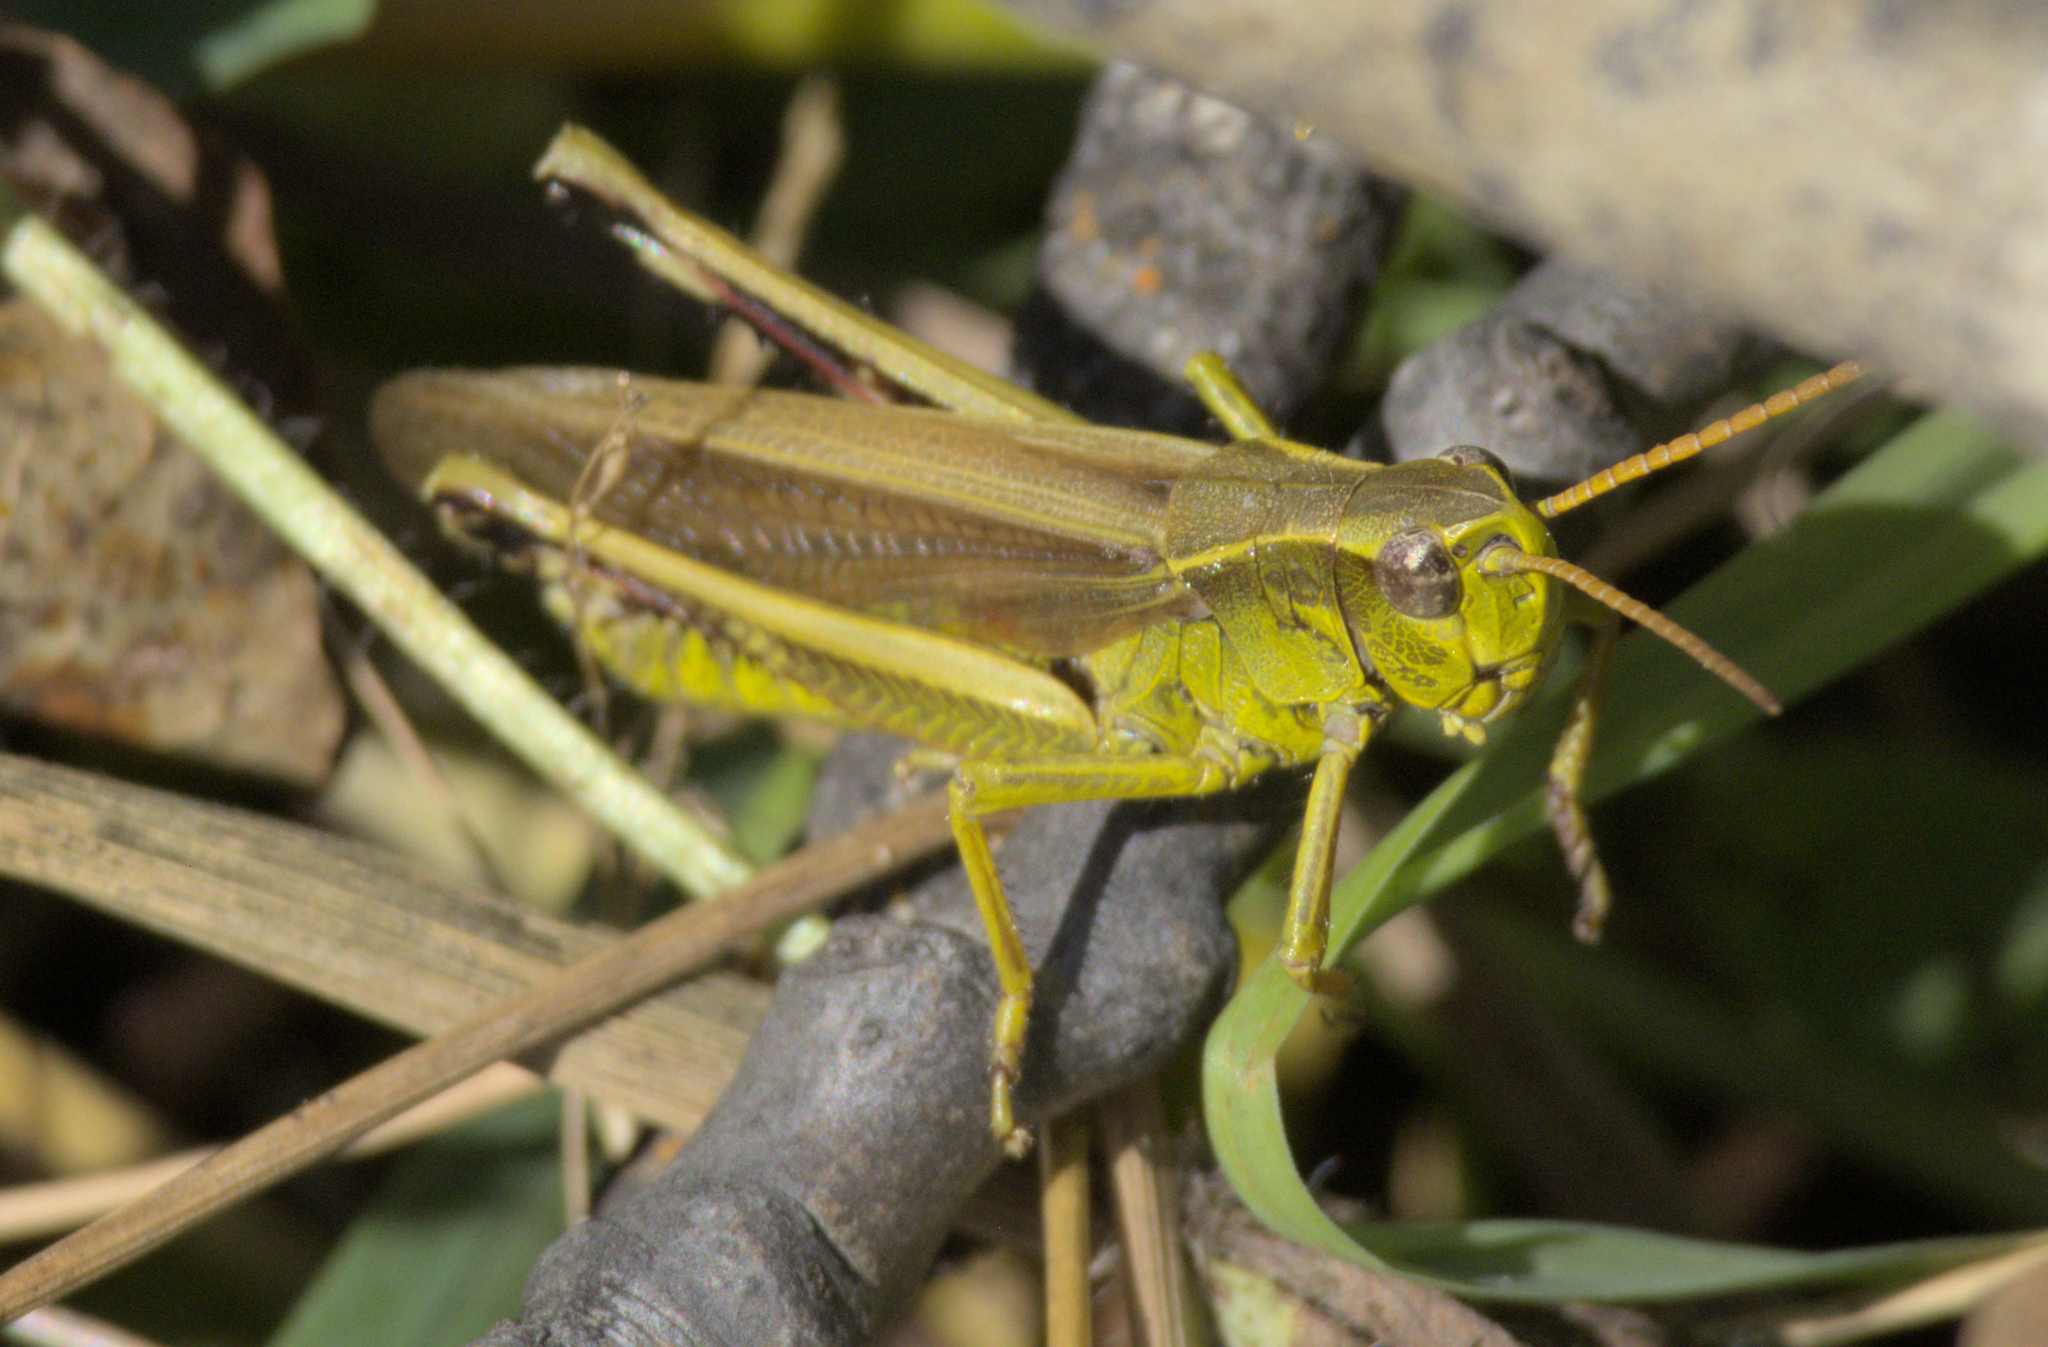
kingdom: Animalia
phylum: Arthropoda
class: Insecta
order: Orthoptera
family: Acrididae
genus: Stethophyma
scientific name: Stethophyma gracile
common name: Graceful sedge grasshopper
